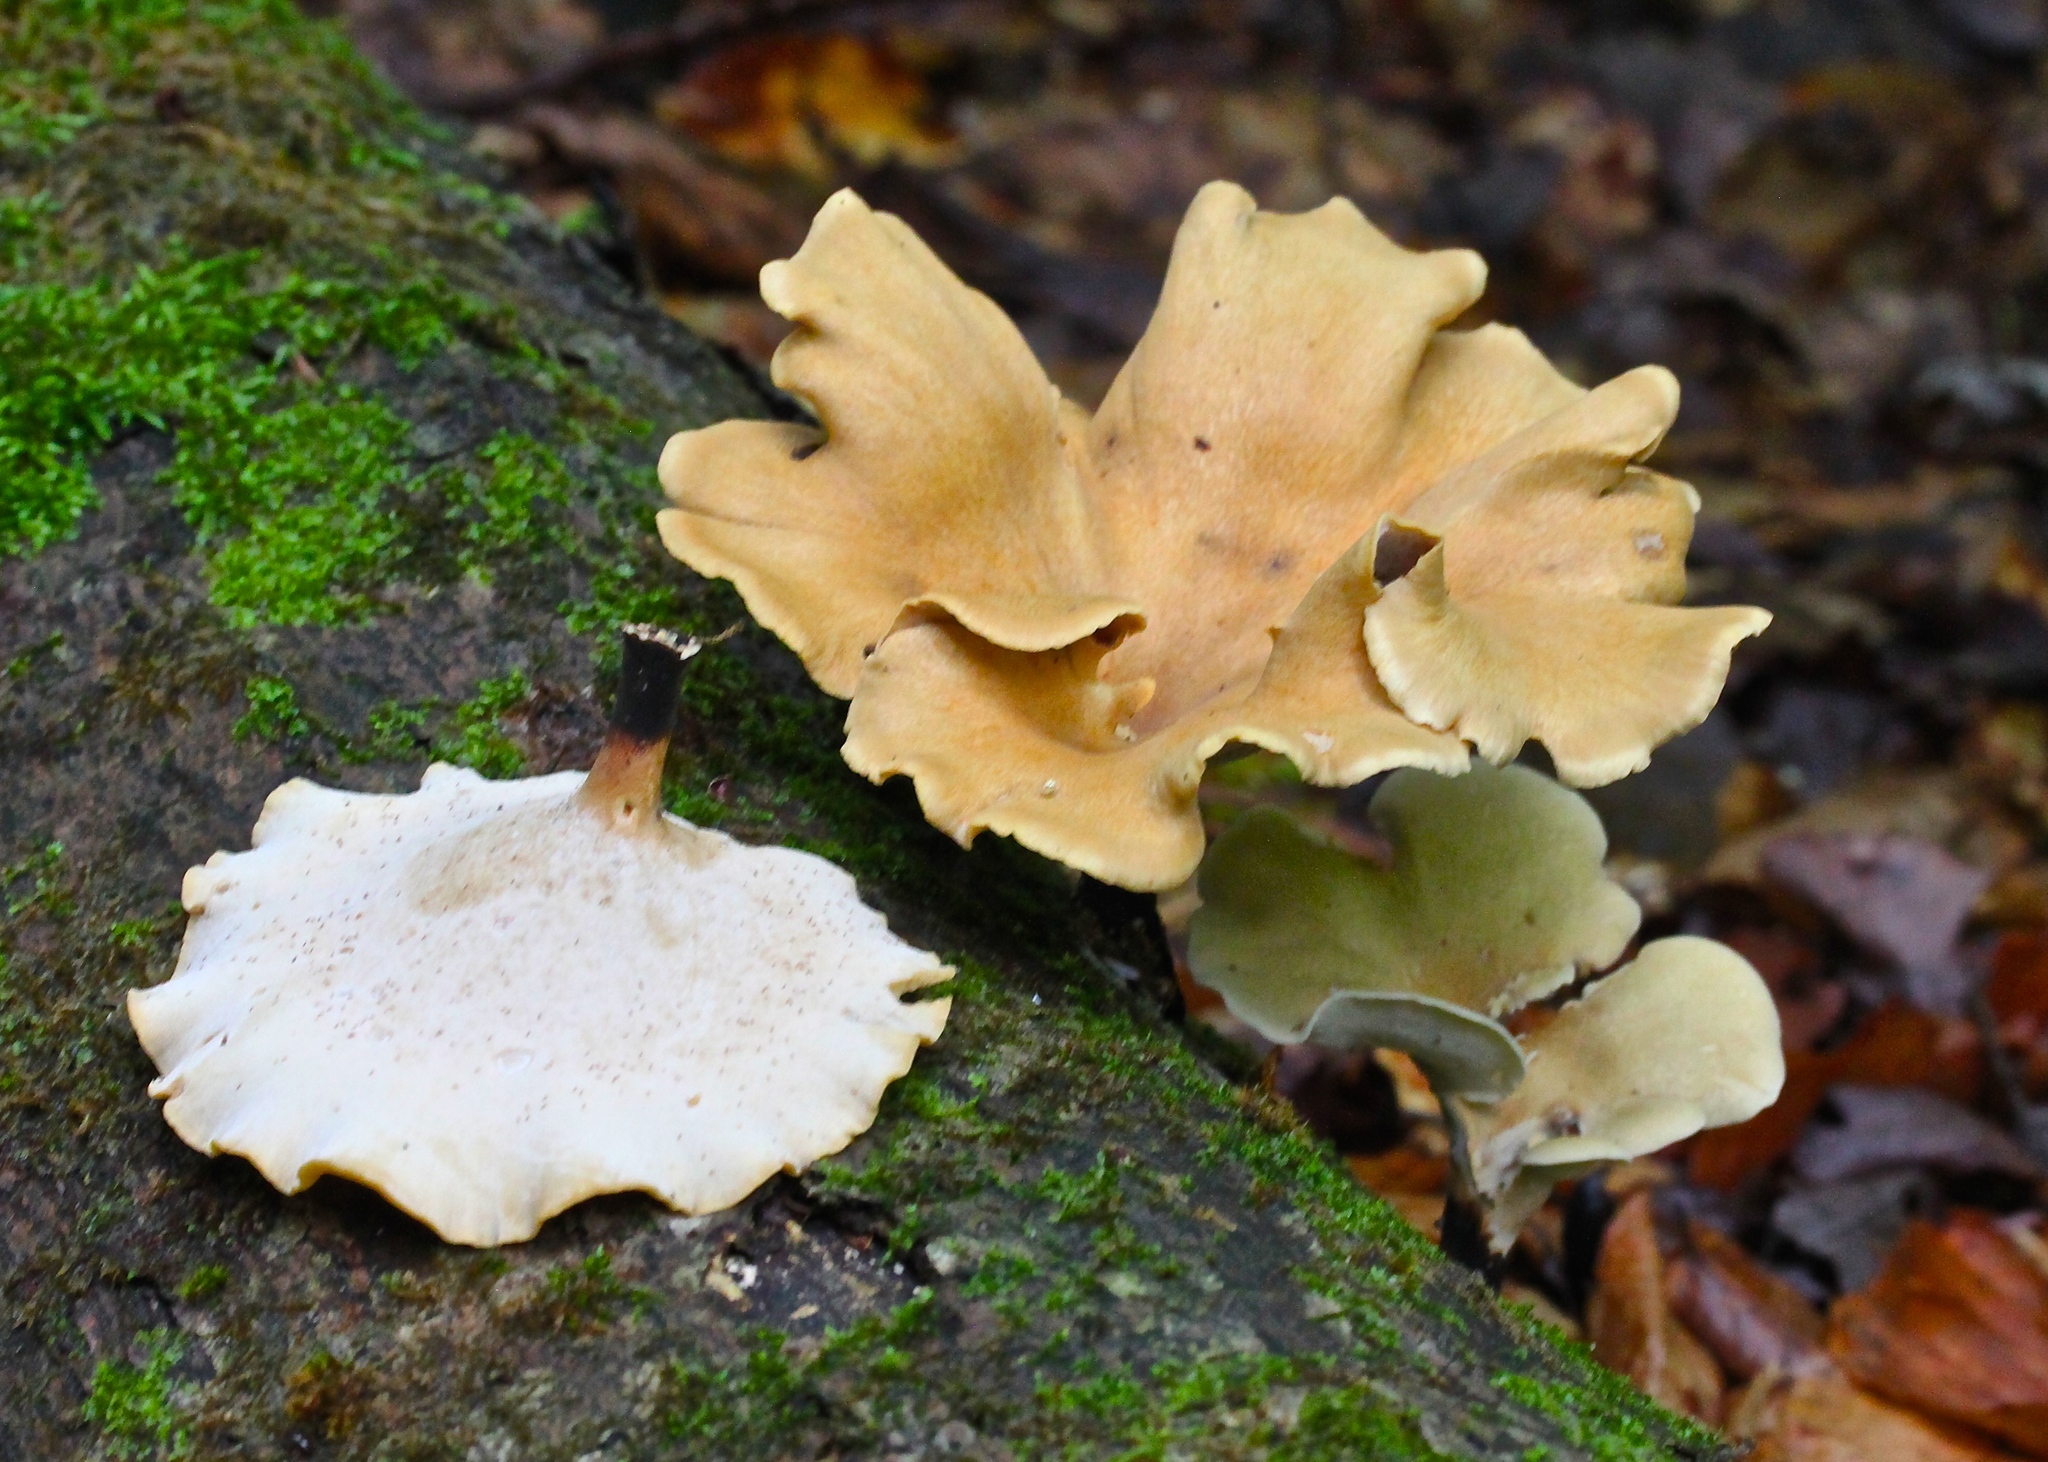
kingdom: Fungi
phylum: Basidiomycota
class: Agaricomycetes
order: Polyporales
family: Polyporaceae
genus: Cerioporus
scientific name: Cerioporus varius
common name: Elegant polypore
